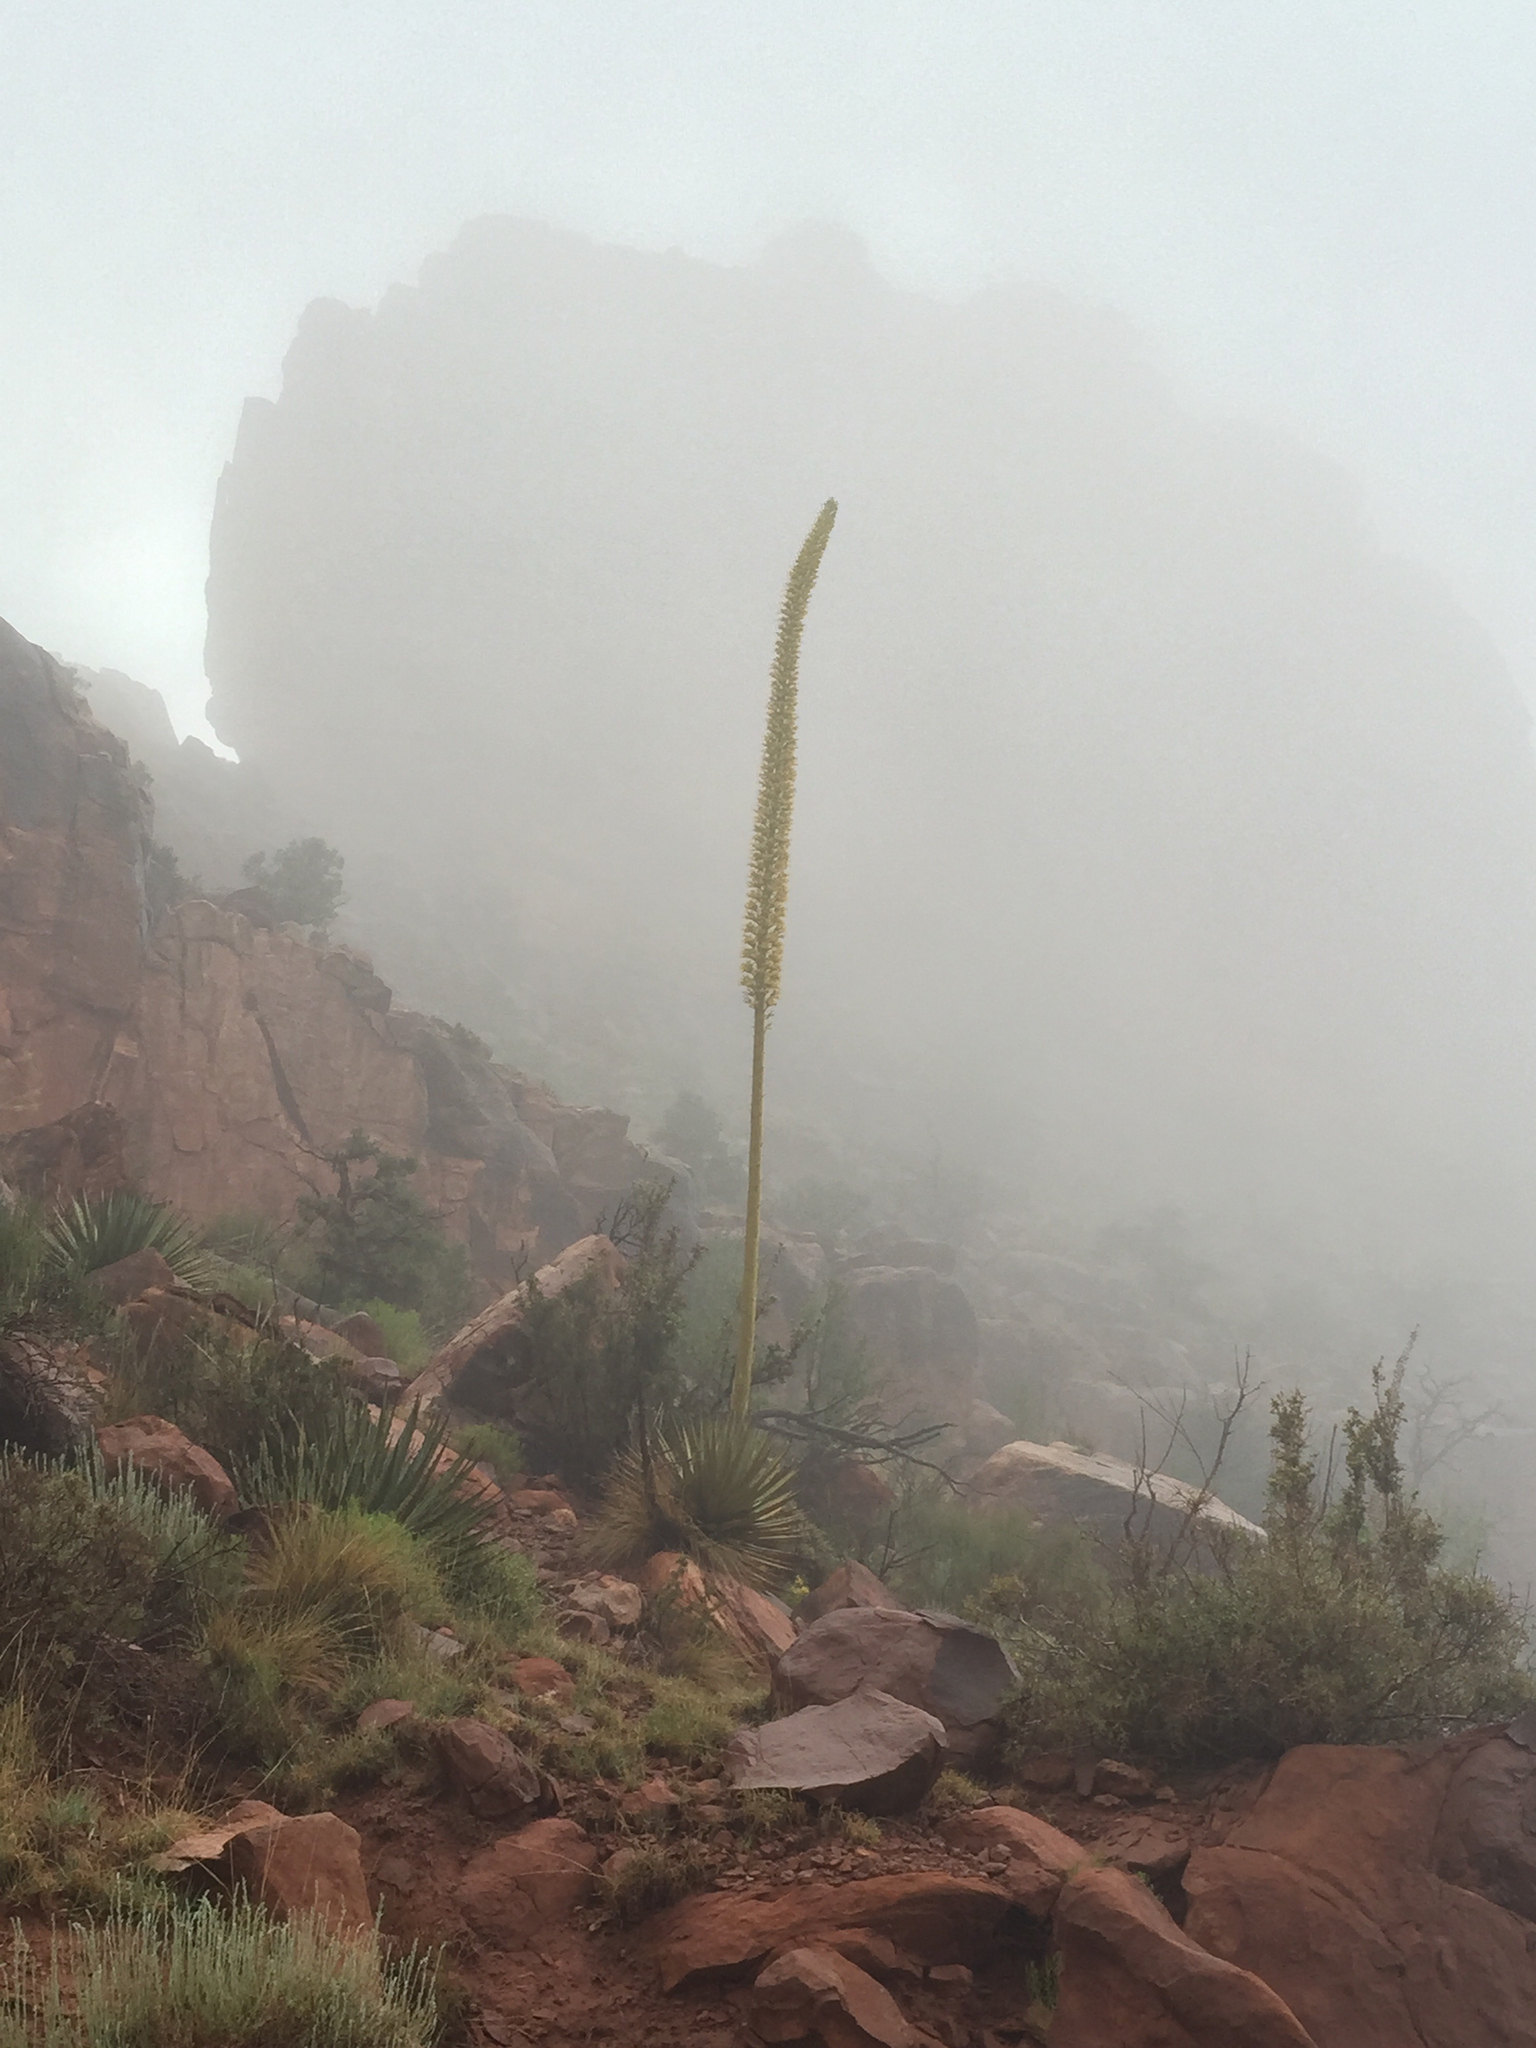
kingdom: Plantae
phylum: Tracheophyta
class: Liliopsida
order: Asparagales
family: Asparagaceae
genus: Agave
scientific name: Agave utahensis
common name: Utah agave
